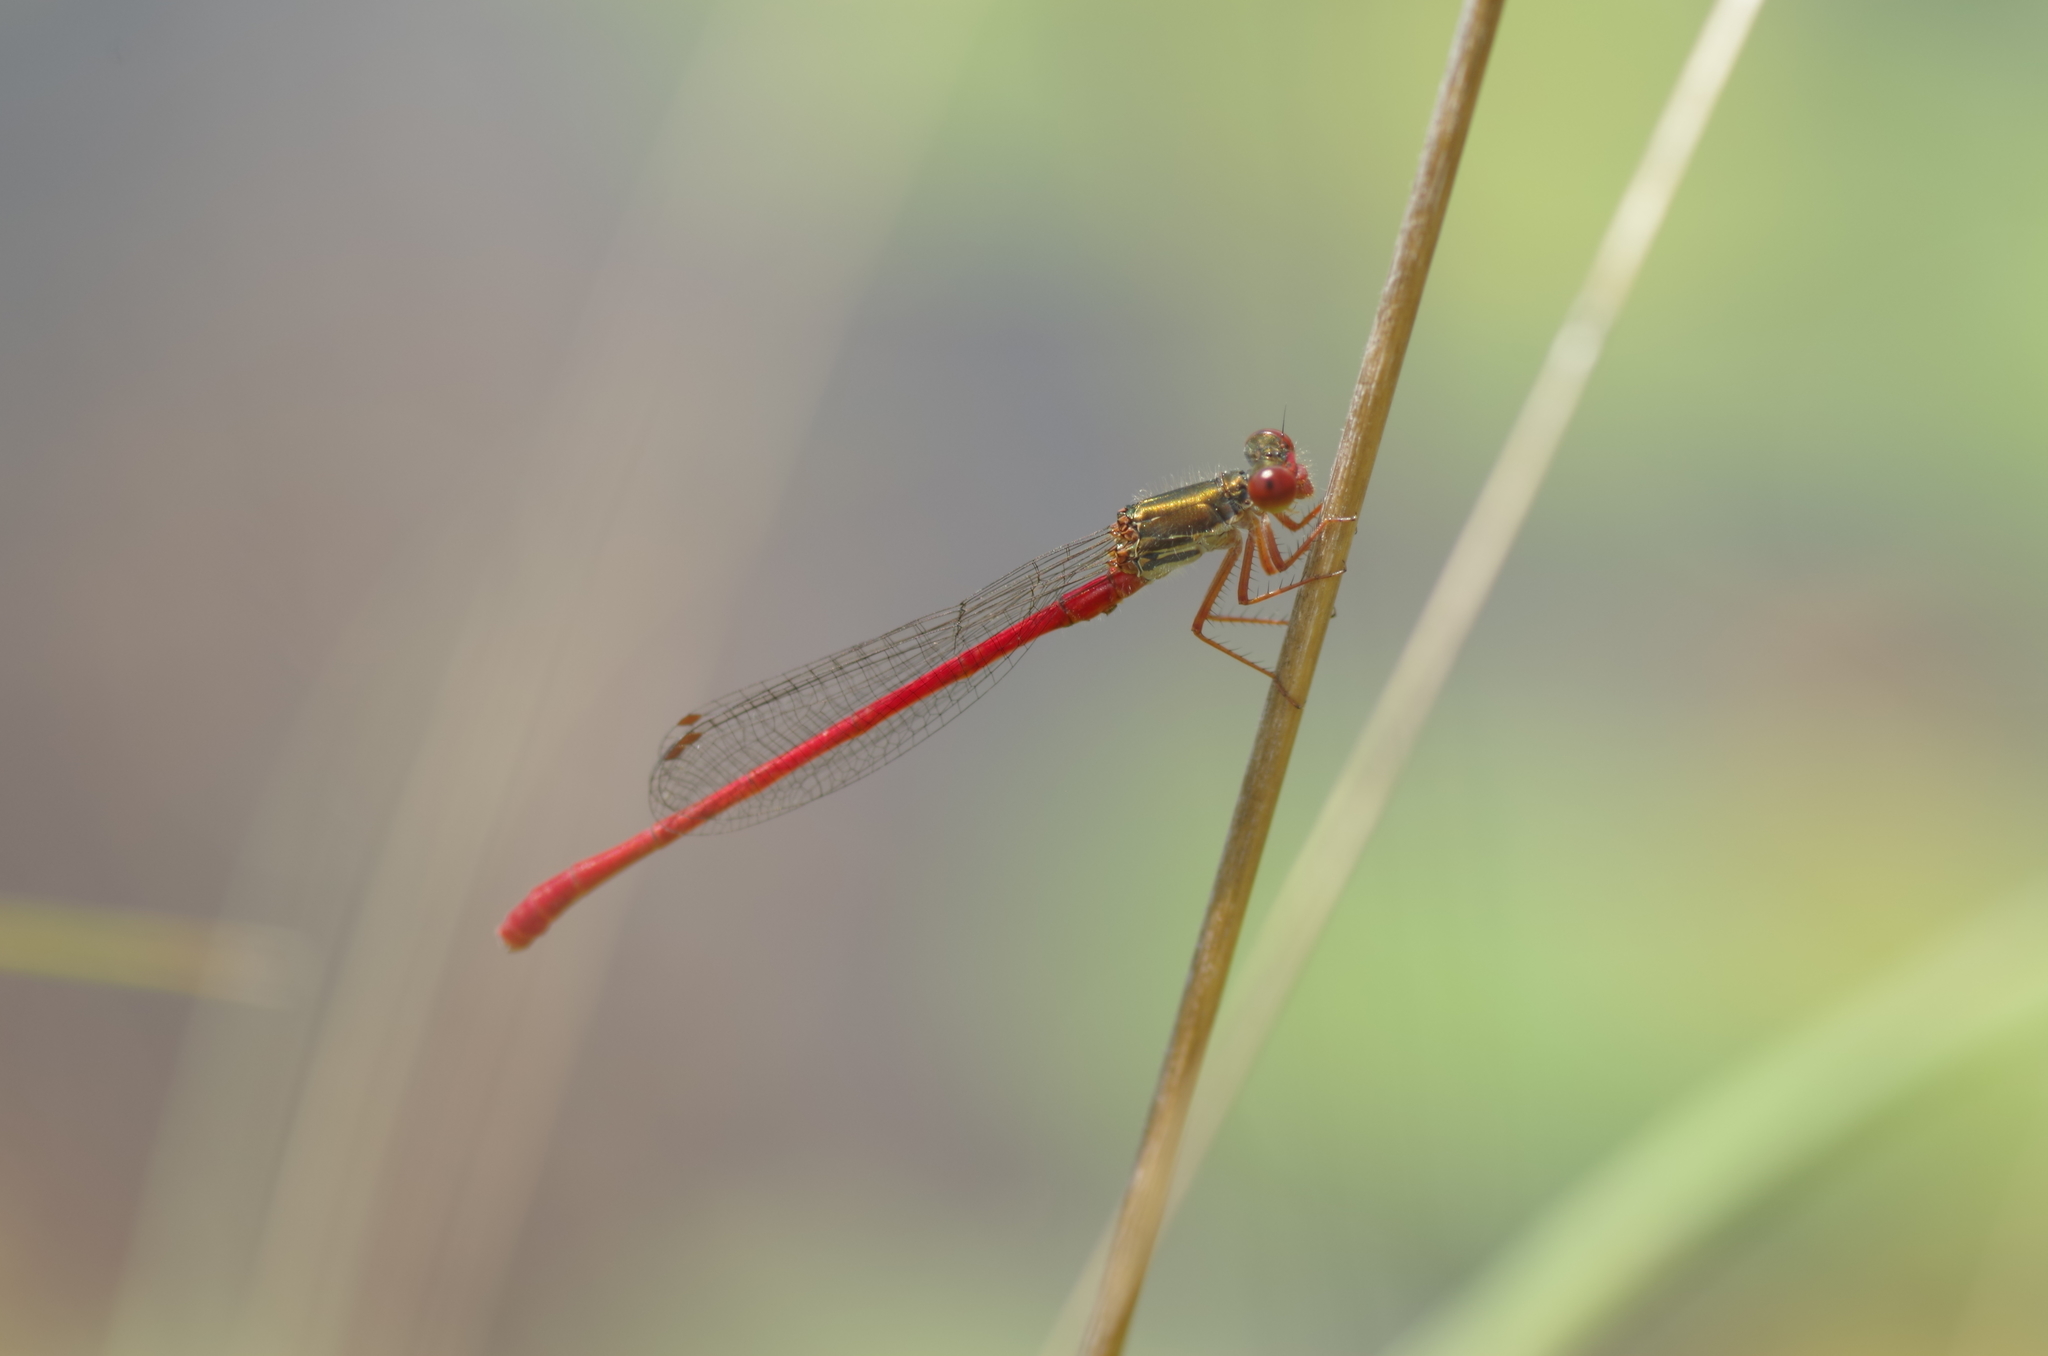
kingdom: Animalia
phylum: Arthropoda
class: Insecta
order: Odonata
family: Coenagrionidae
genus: Ceriagrion
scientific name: Ceriagrion tenellum
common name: Small red damselfly
